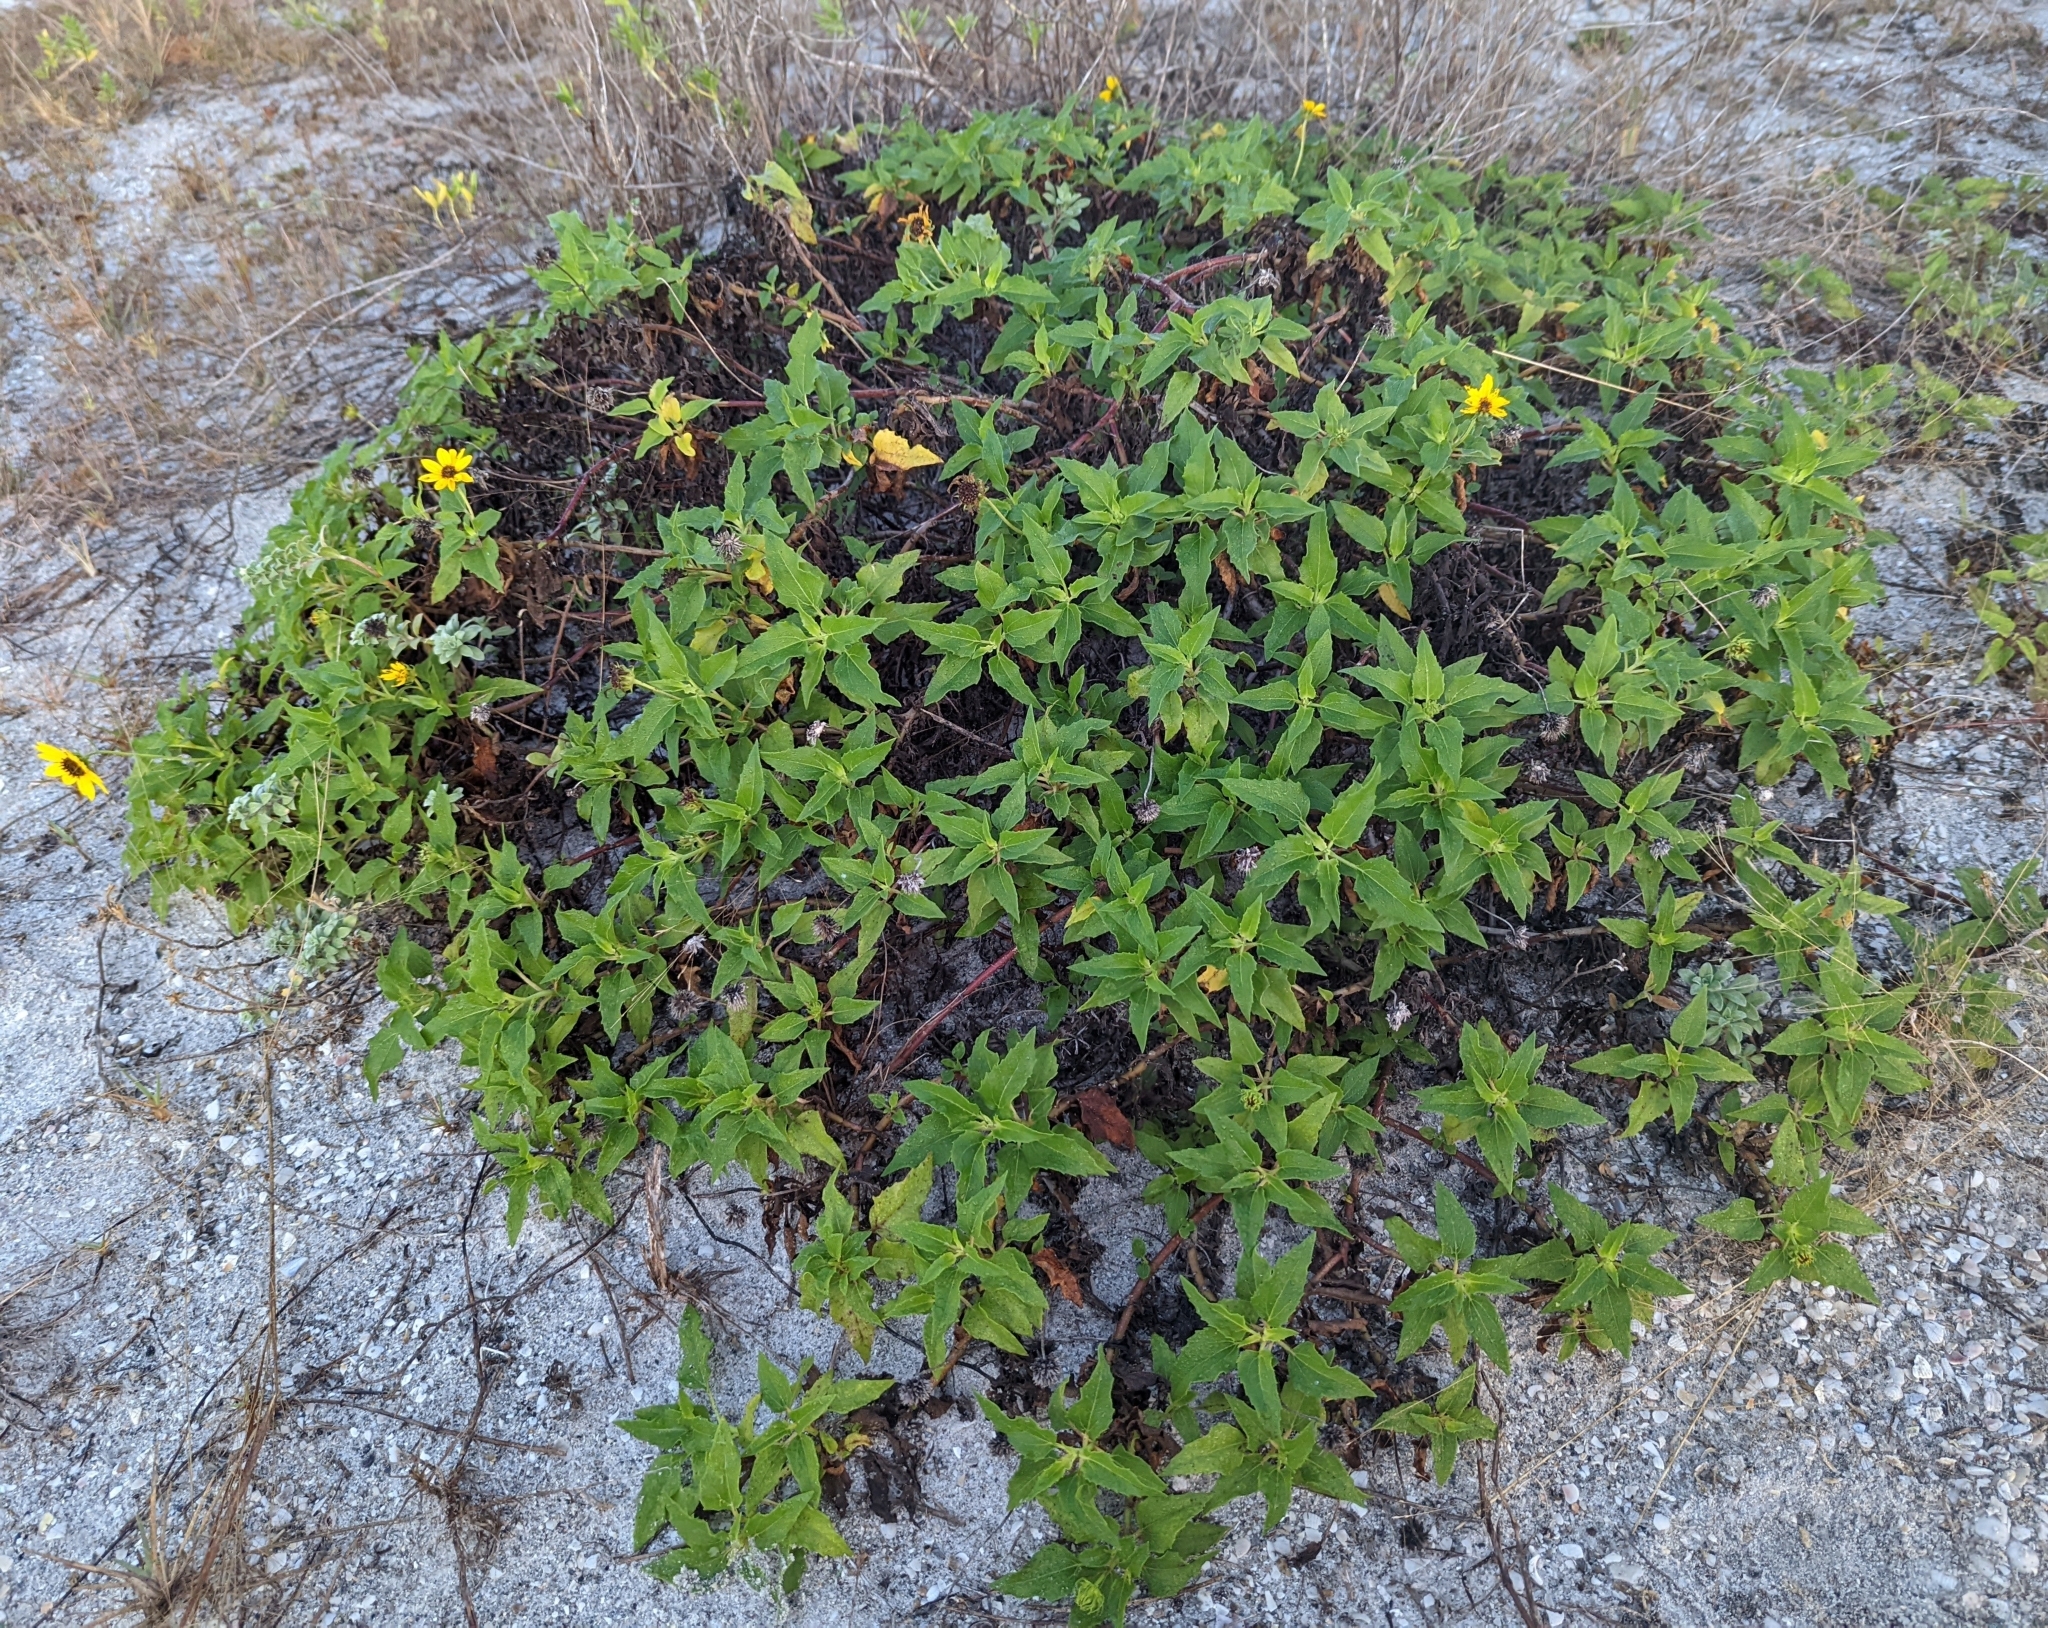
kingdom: Plantae
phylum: Tracheophyta
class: Magnoliopsida
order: Asterales
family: Asteraceae
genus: Helianthus
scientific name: Helianthus debilis
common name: Weak sunflower
